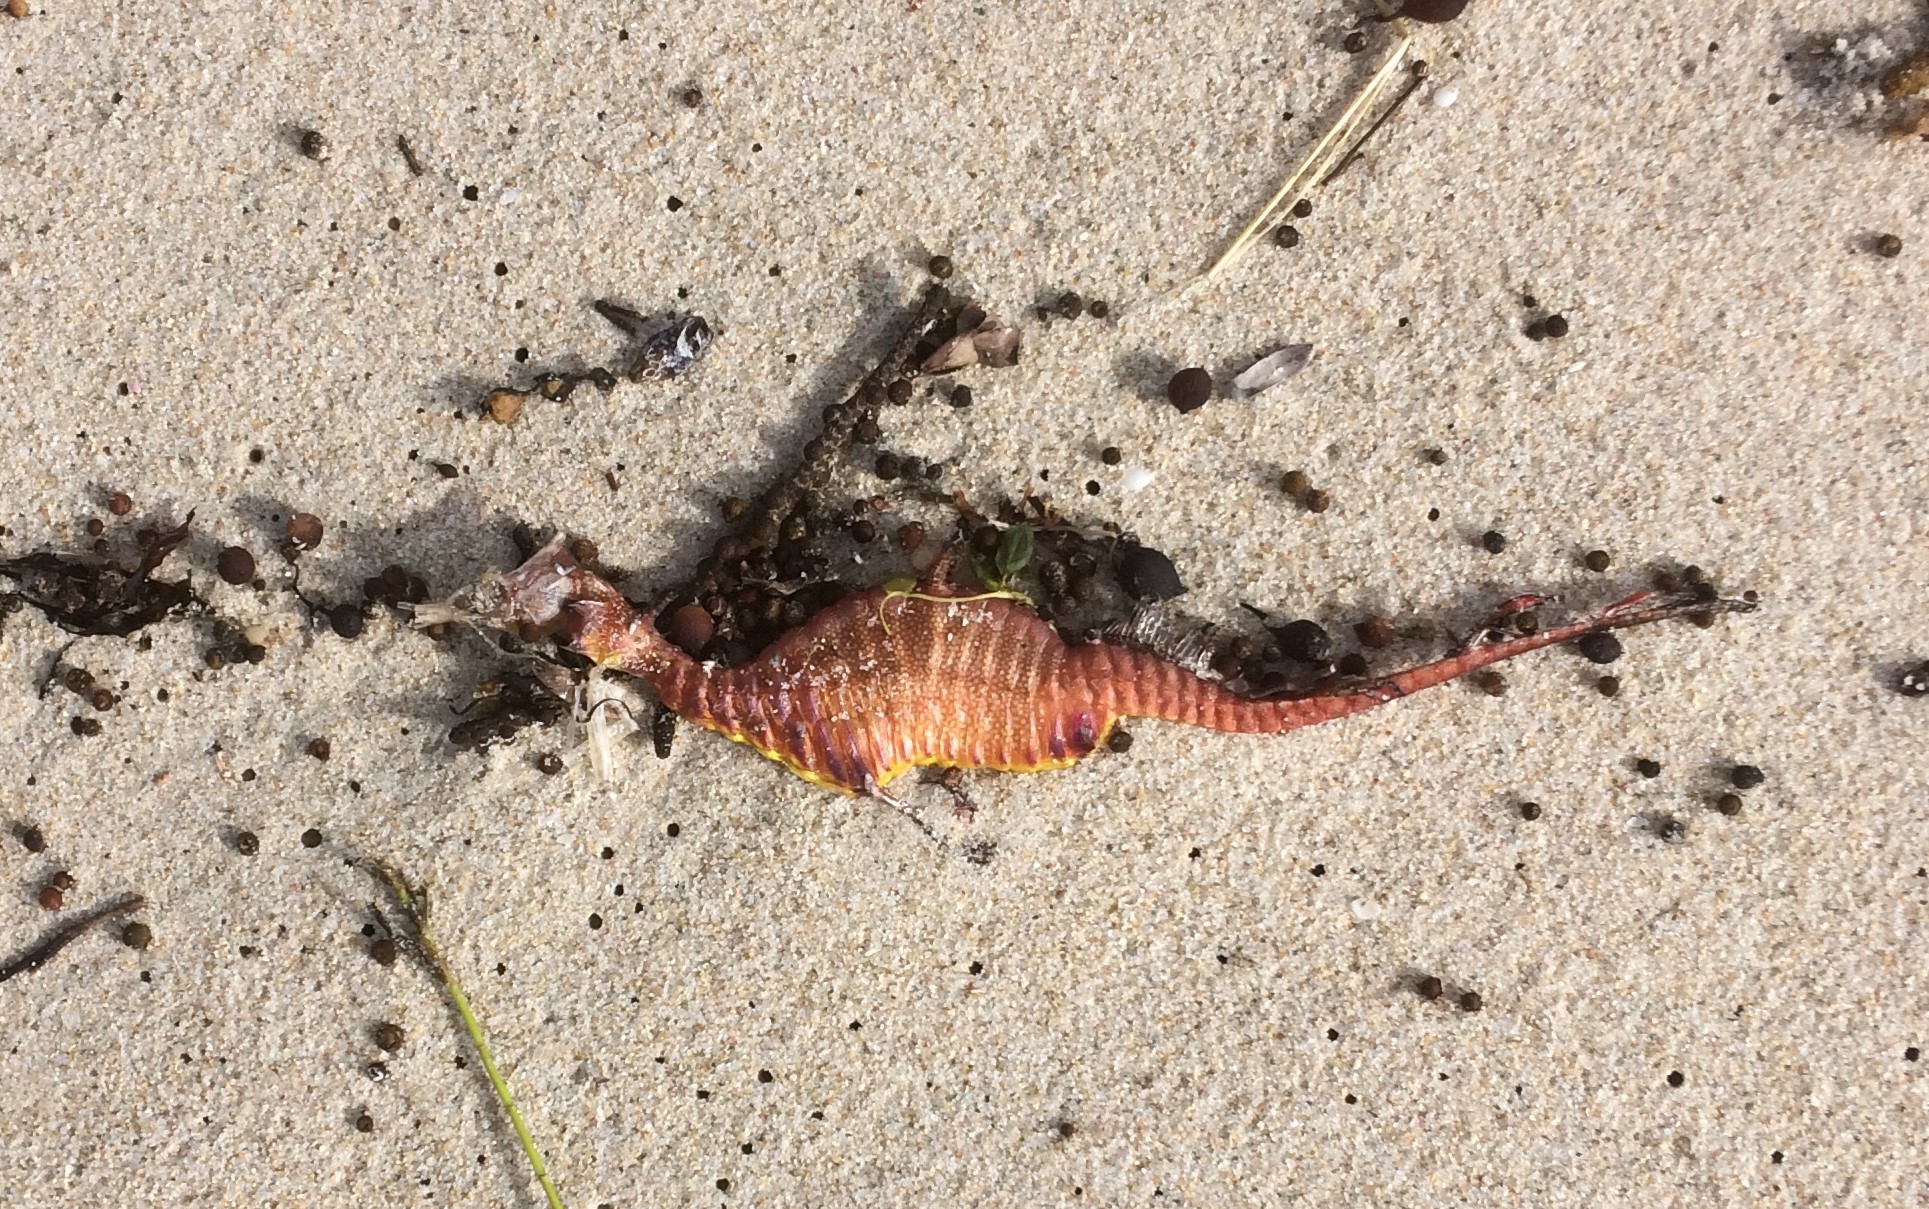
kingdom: Animalia
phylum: Chordata
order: Syngnathiformes
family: Syngnathidae
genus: Phyllopteryx
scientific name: Phyllopteryx taeniolatus
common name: Common seadragon
